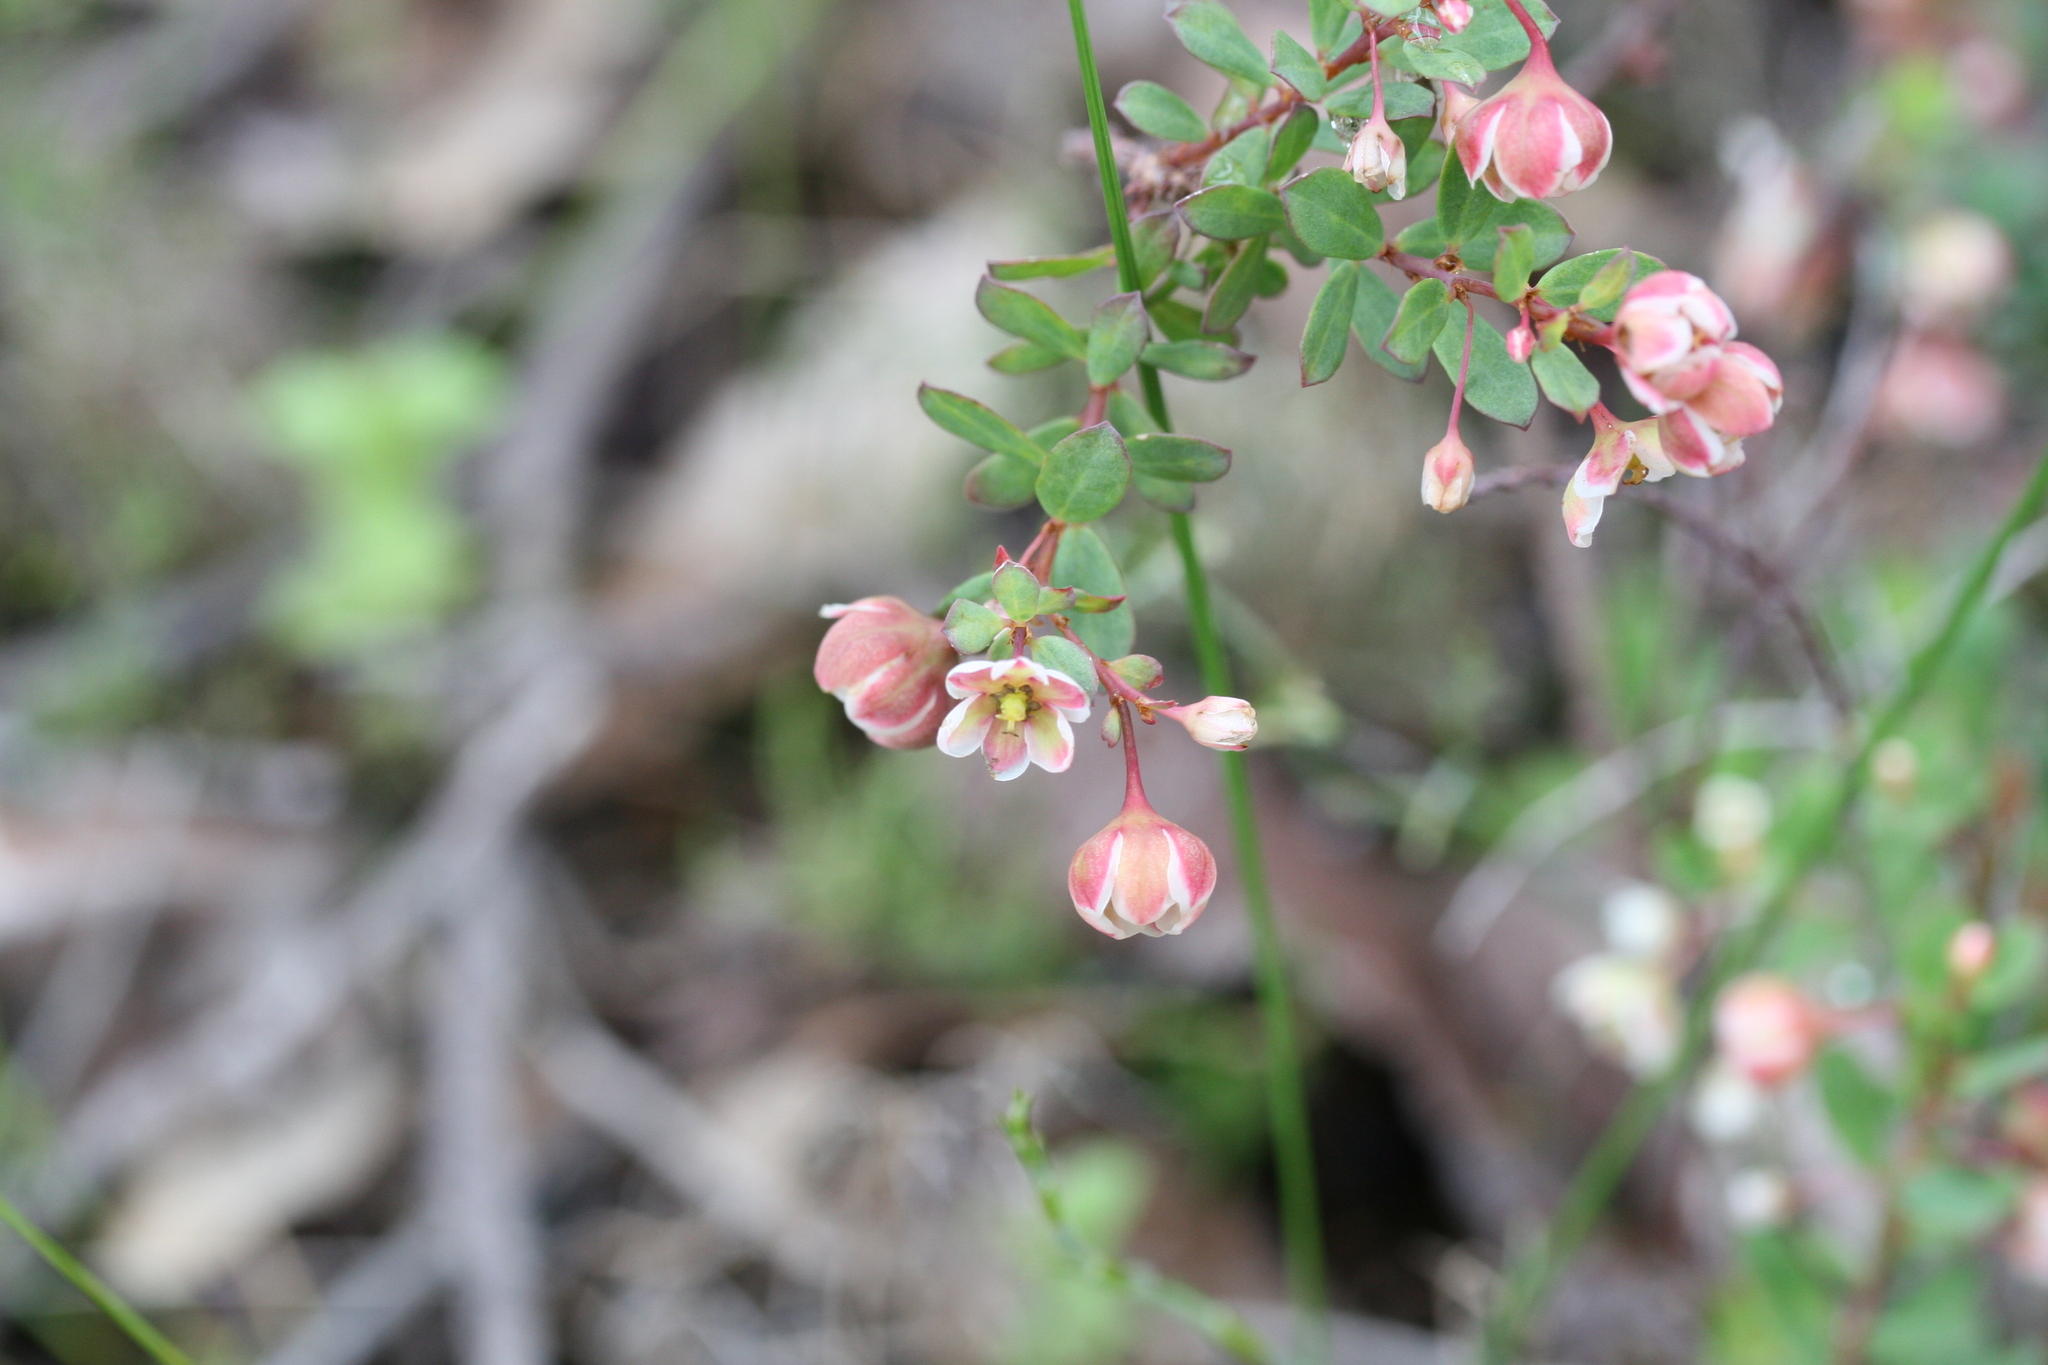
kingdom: Plantae
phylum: Tracheophyta
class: Magnoliopsida
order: Malpighiales
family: Phyllanthaceae
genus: Phyllanthus
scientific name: Phyllanthus calycinus
